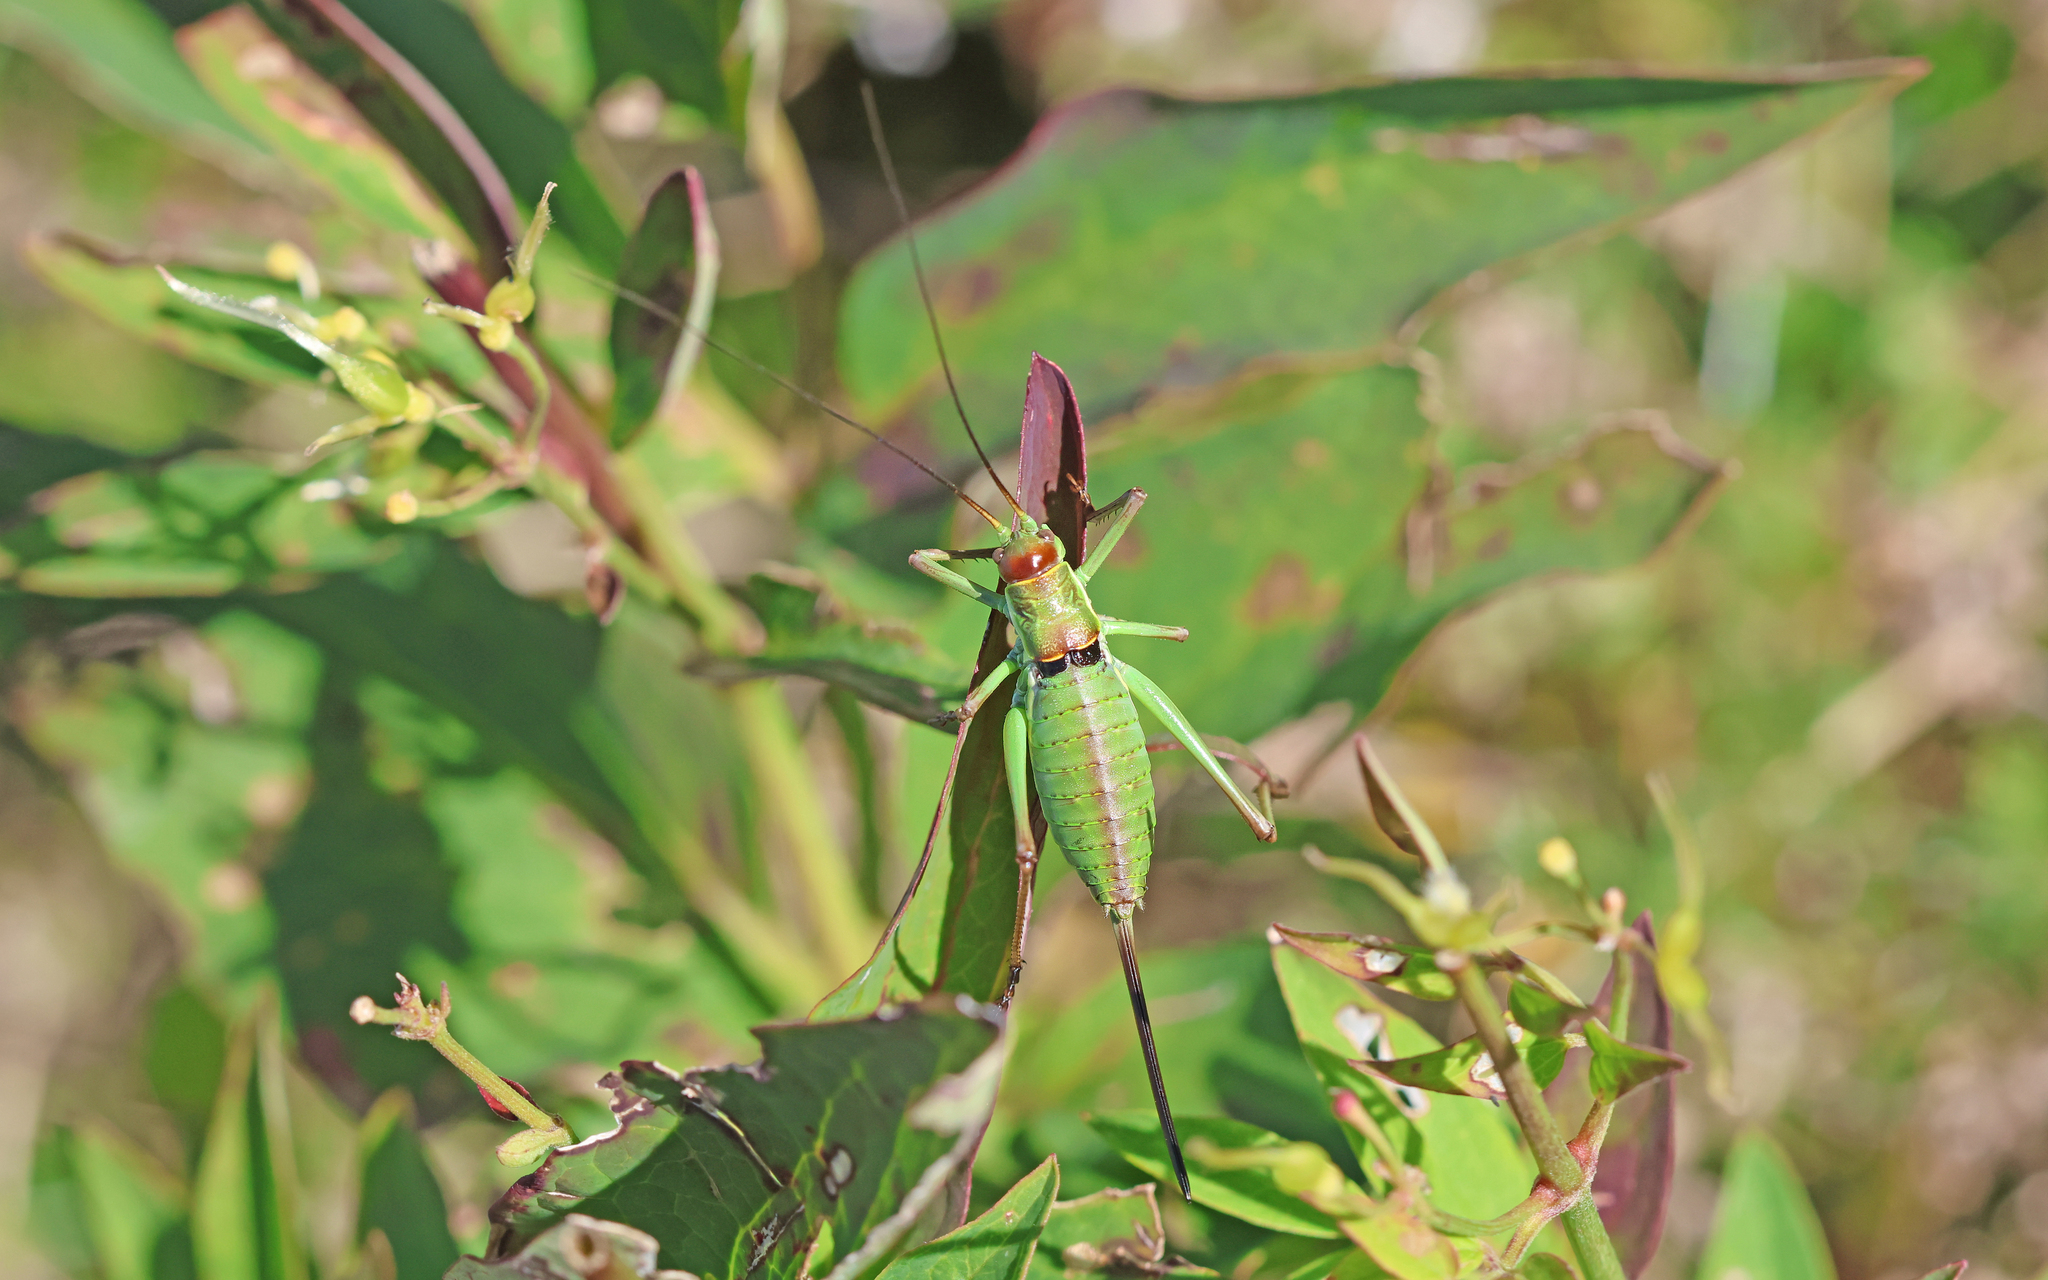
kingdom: Animalia
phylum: Arthropoda
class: Insecta
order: Orthoptera
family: Tettigoniidae
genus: Dinarippiger
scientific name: Dinarippiger discoidalis
